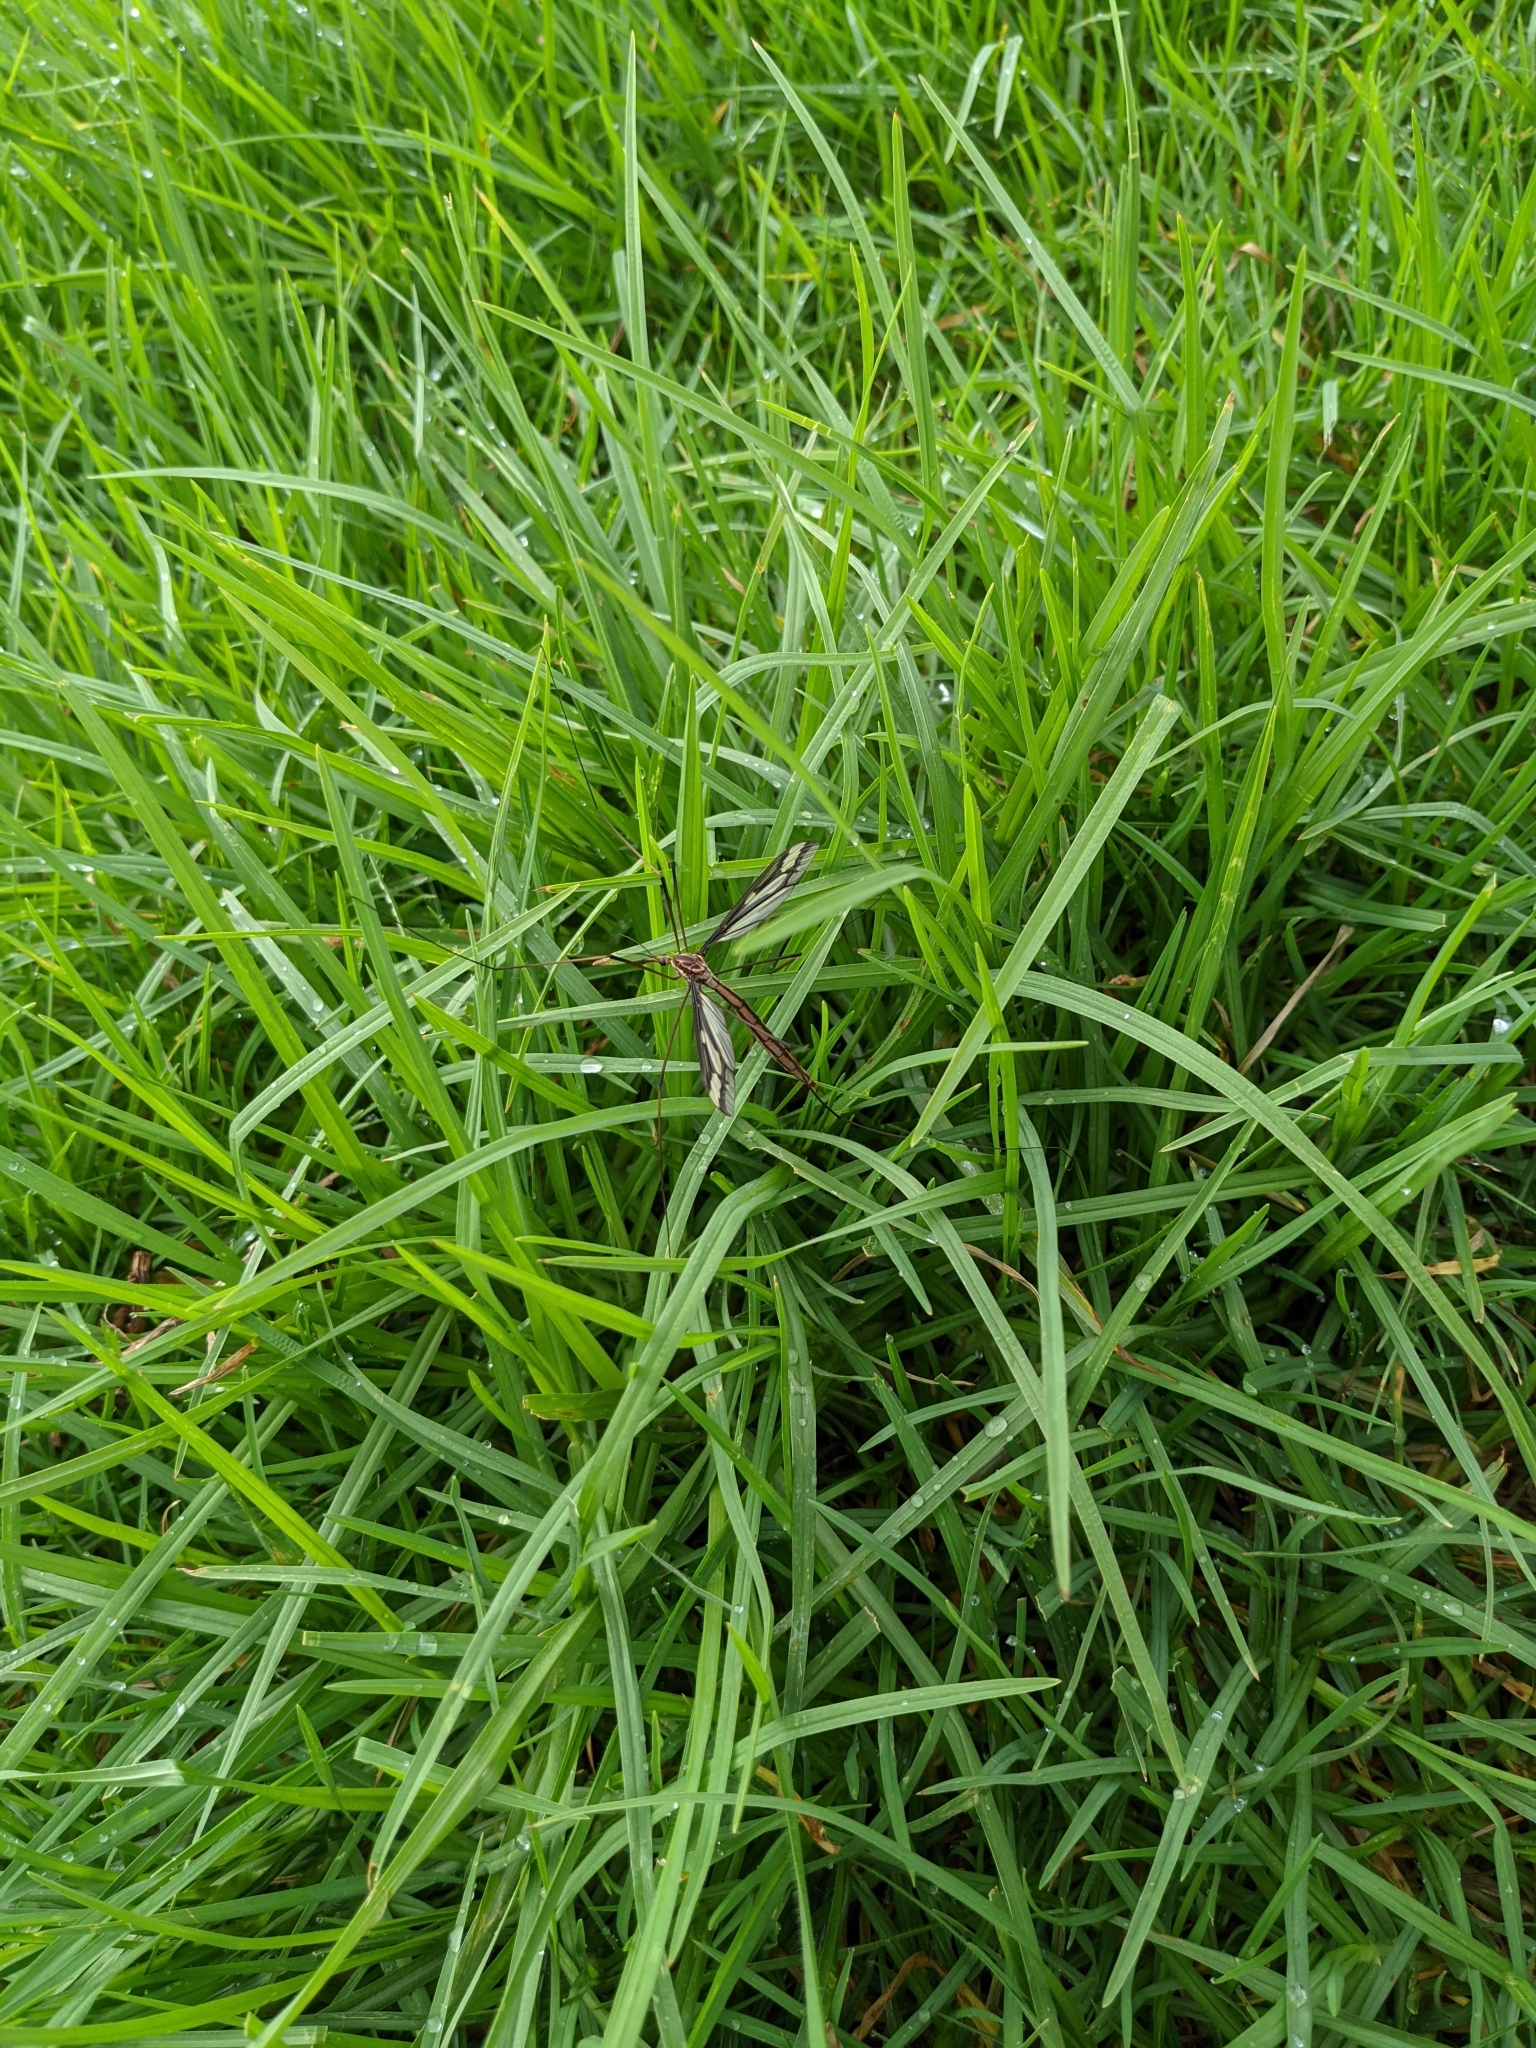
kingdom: Animalia
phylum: Arthropoda
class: Insecta
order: Diptera
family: Tipulidae
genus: Ptilogyna
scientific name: Ptilogyna gracilis
